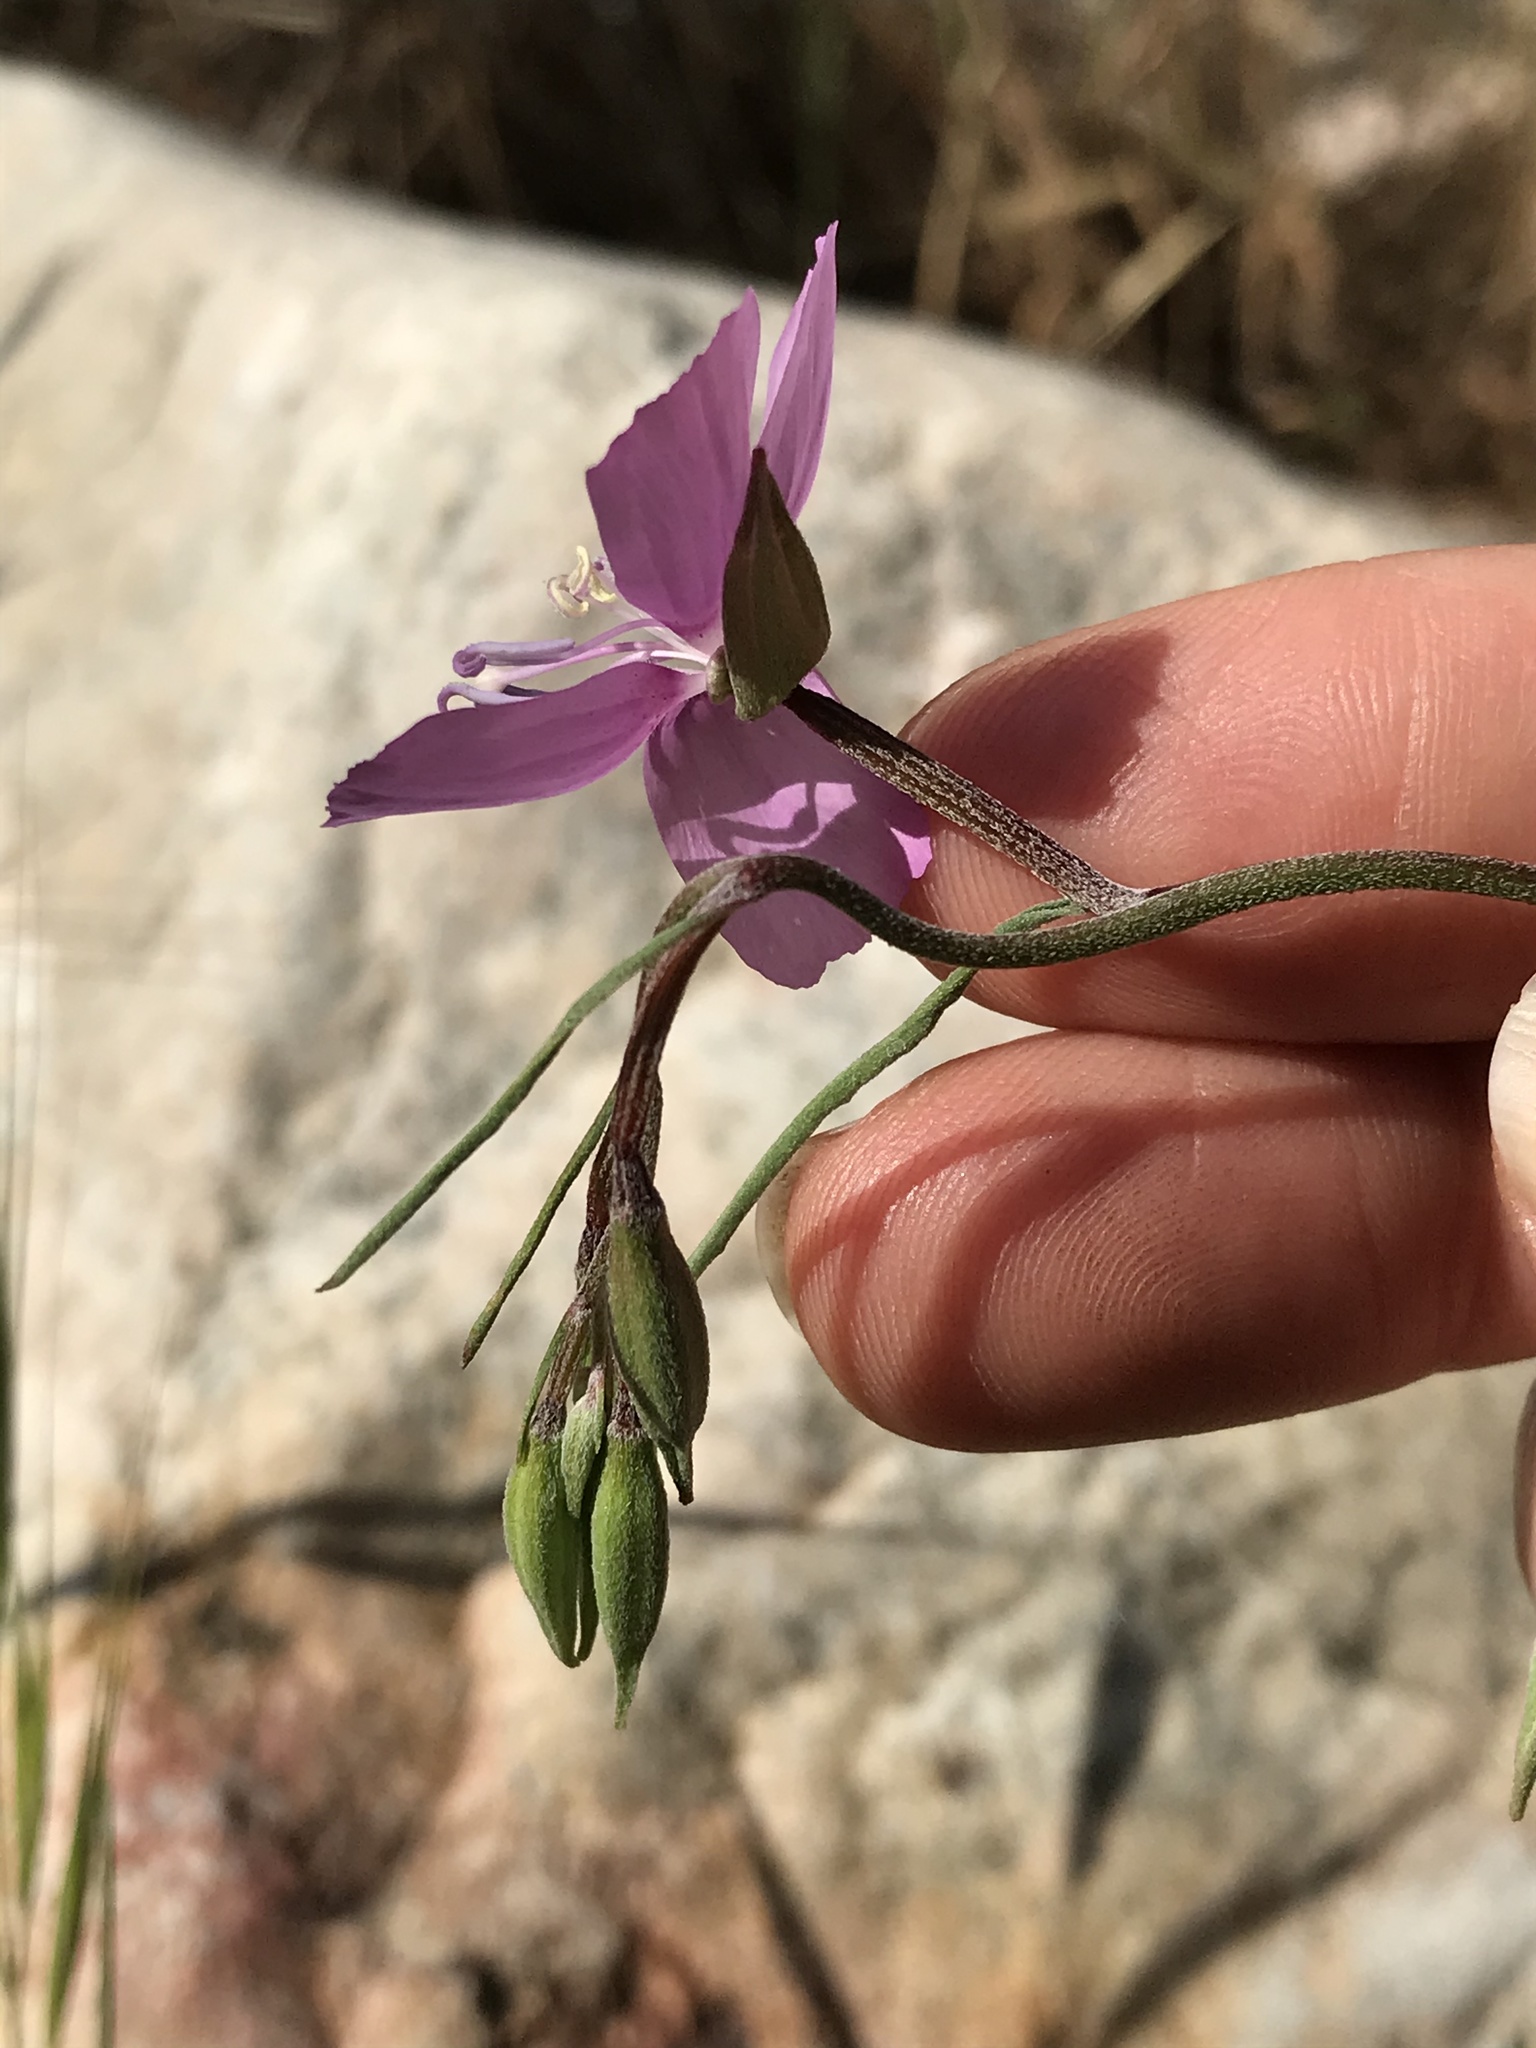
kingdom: Plantae
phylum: Tracheophyta
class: Magnoliopsida
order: Myrtales
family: Onagraceae
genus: Clarkia
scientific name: Clarkia dudleyana
